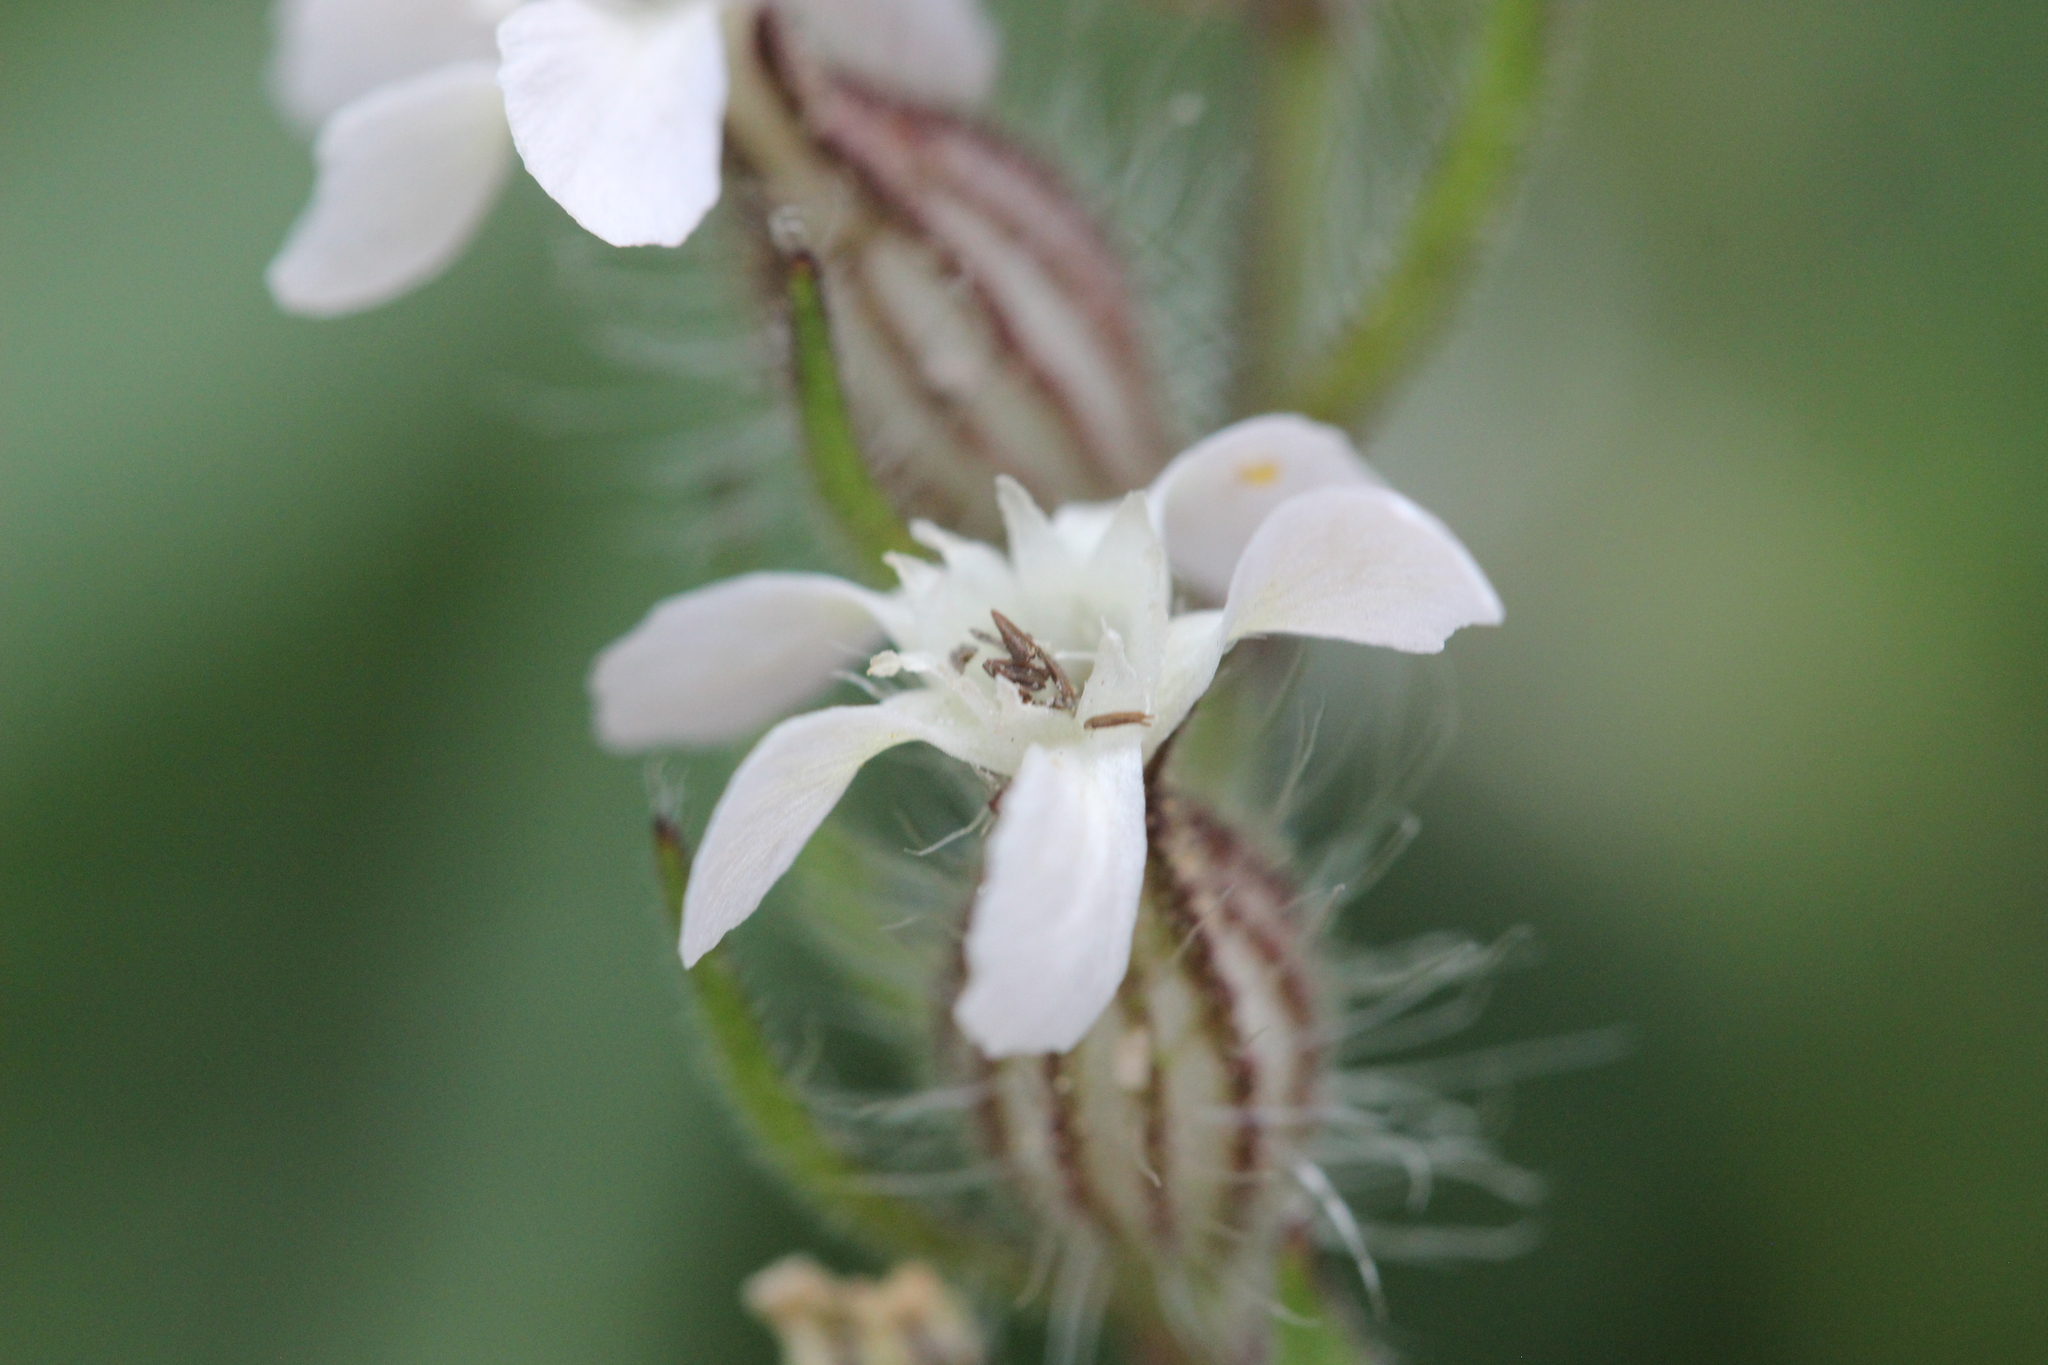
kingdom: Plantae
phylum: Tracheophyta
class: Magnoliopsida
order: Caryophyllales
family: Caryophyllaceae
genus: Silene
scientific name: Silene gallica
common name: Small-flowered catchfly
